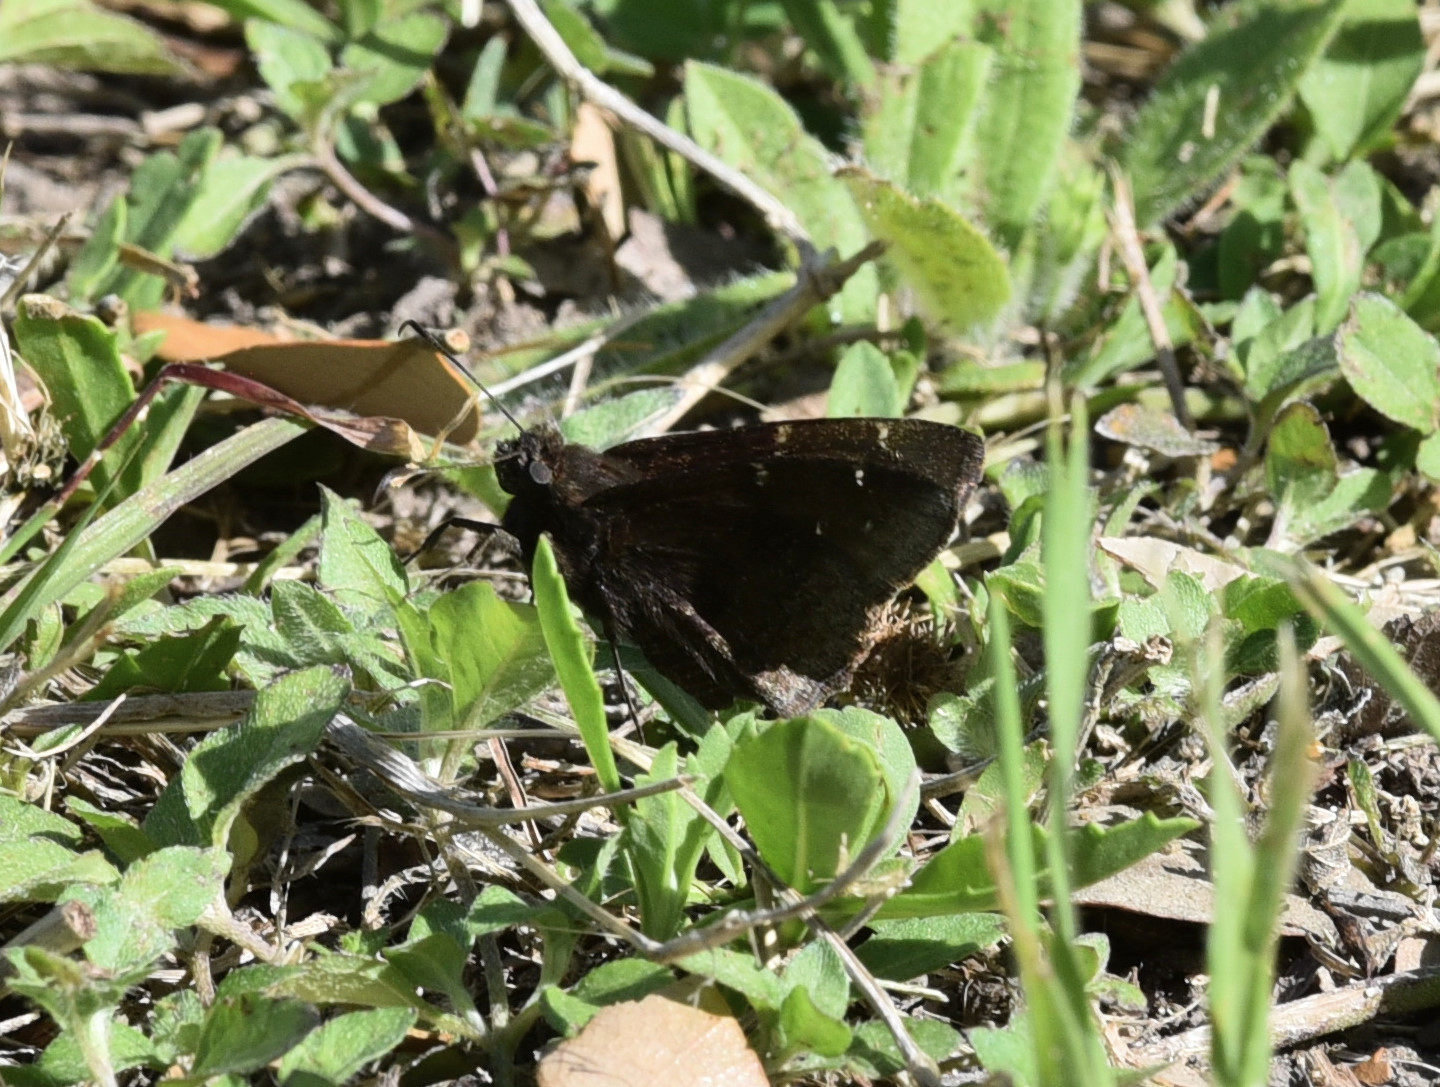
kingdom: Animalia
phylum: Arthropoda
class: Insecta
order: Lepidoptera
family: Hesperiidae
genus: Thorybes
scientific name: Thorybes pylades
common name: Northern cloudywing
